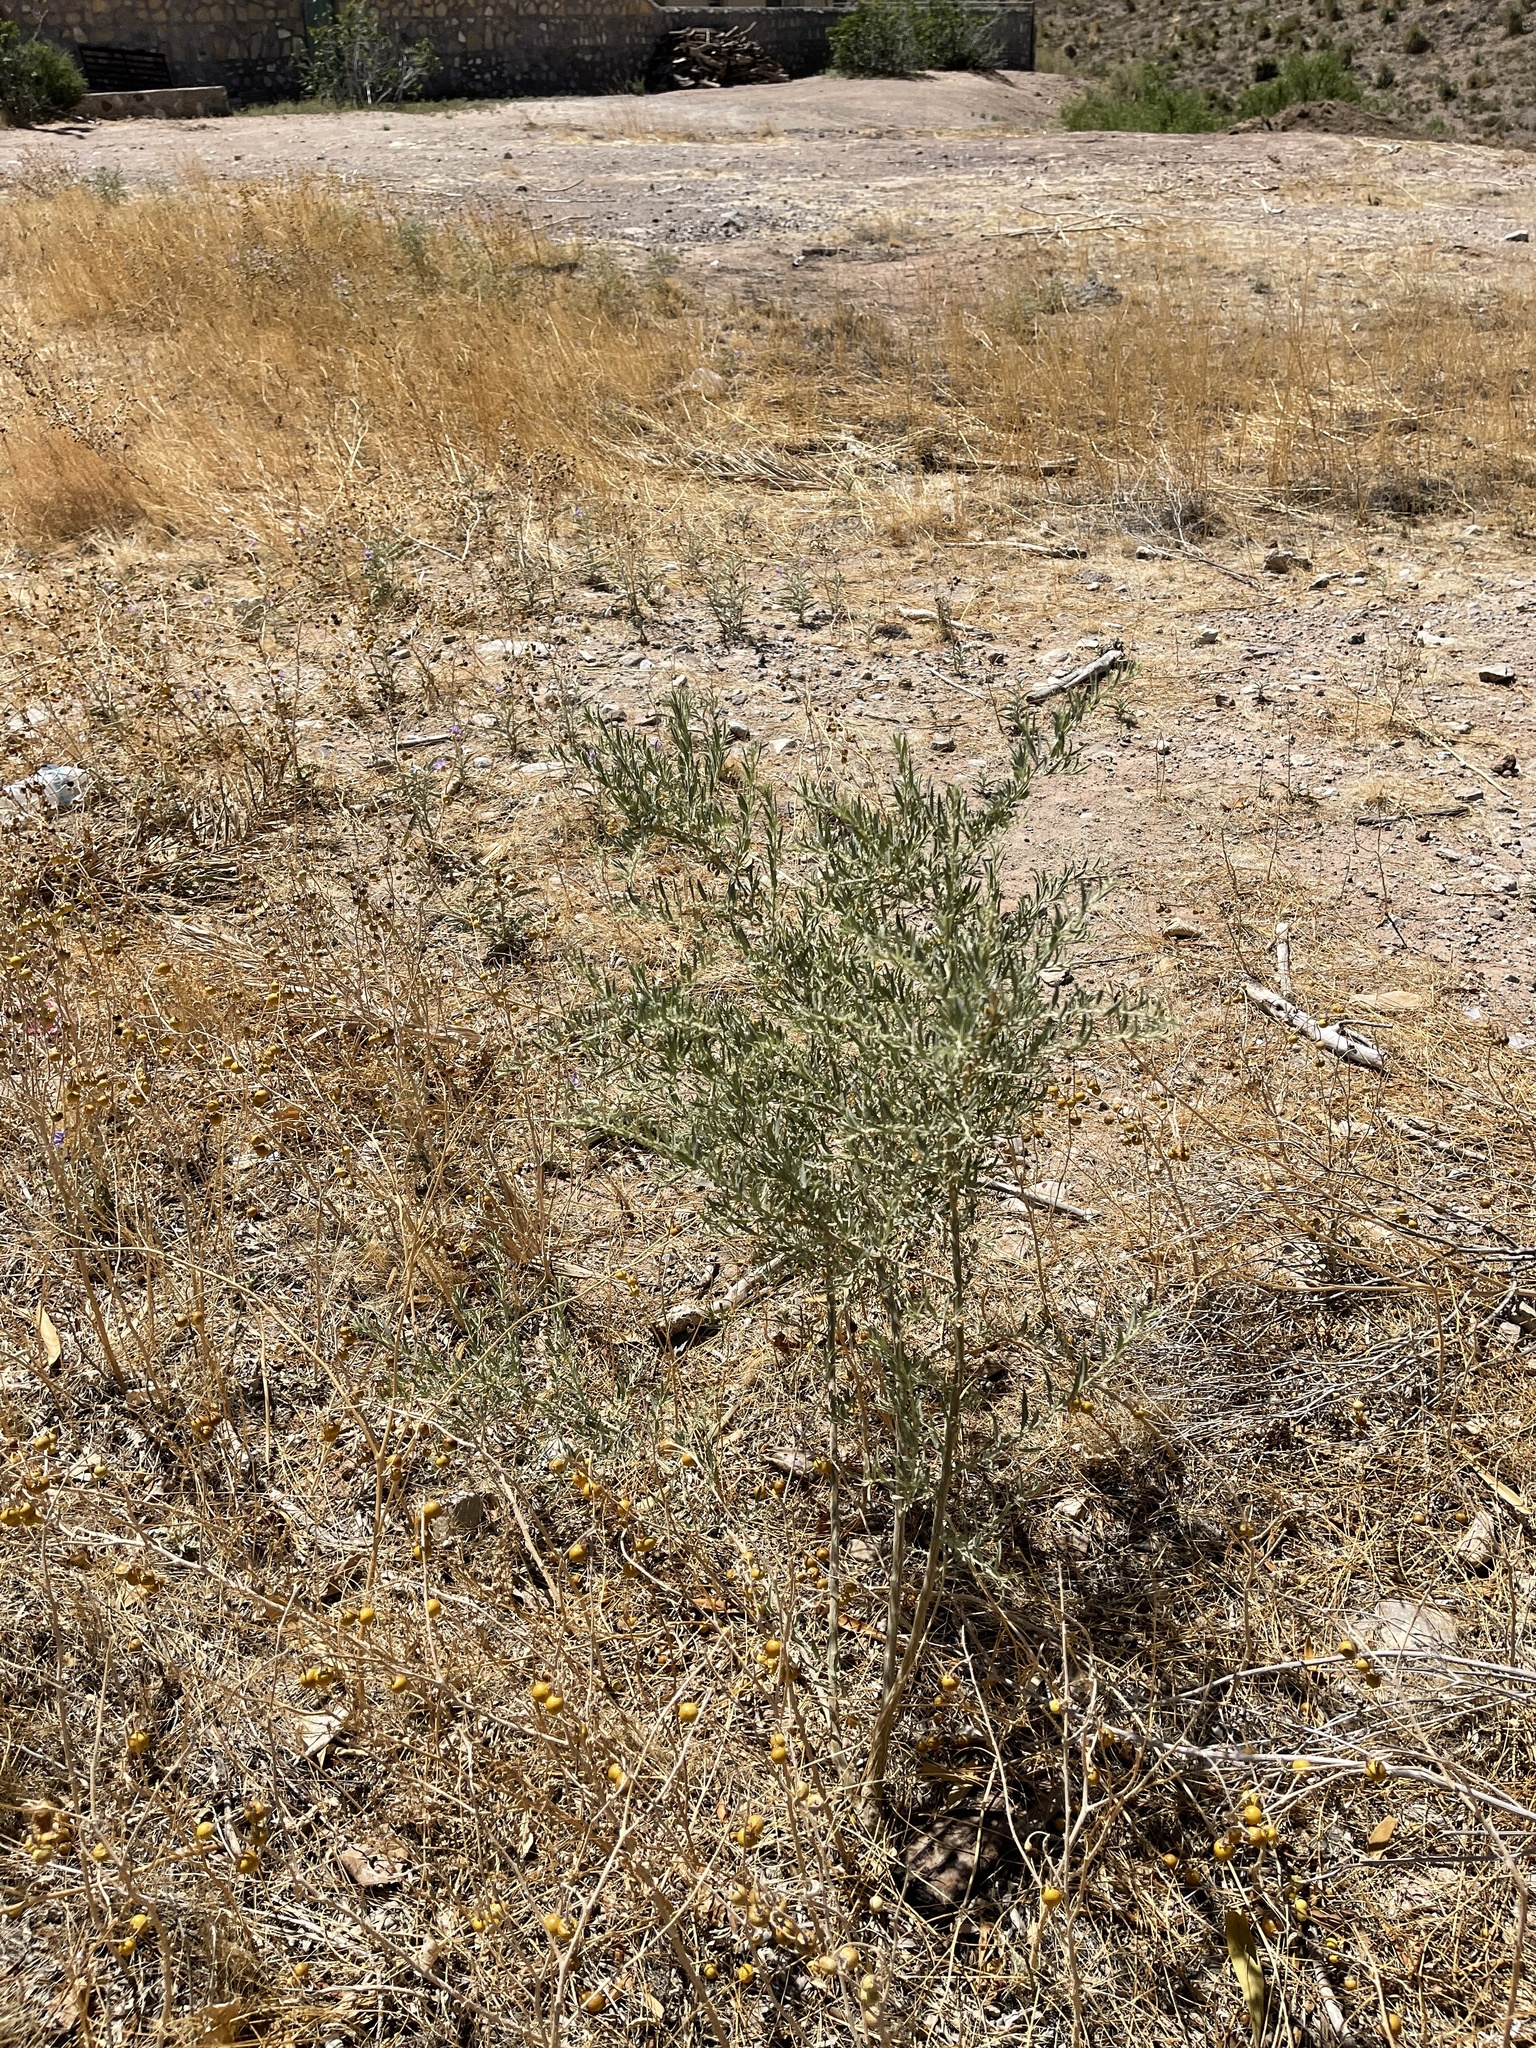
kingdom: Plantae
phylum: Tracheophyta
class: Magnoliopsida
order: Caryophyllales
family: Amaranthaceae
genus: Atriplex
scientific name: Atriplex canescens
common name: Four-wing saltbush
